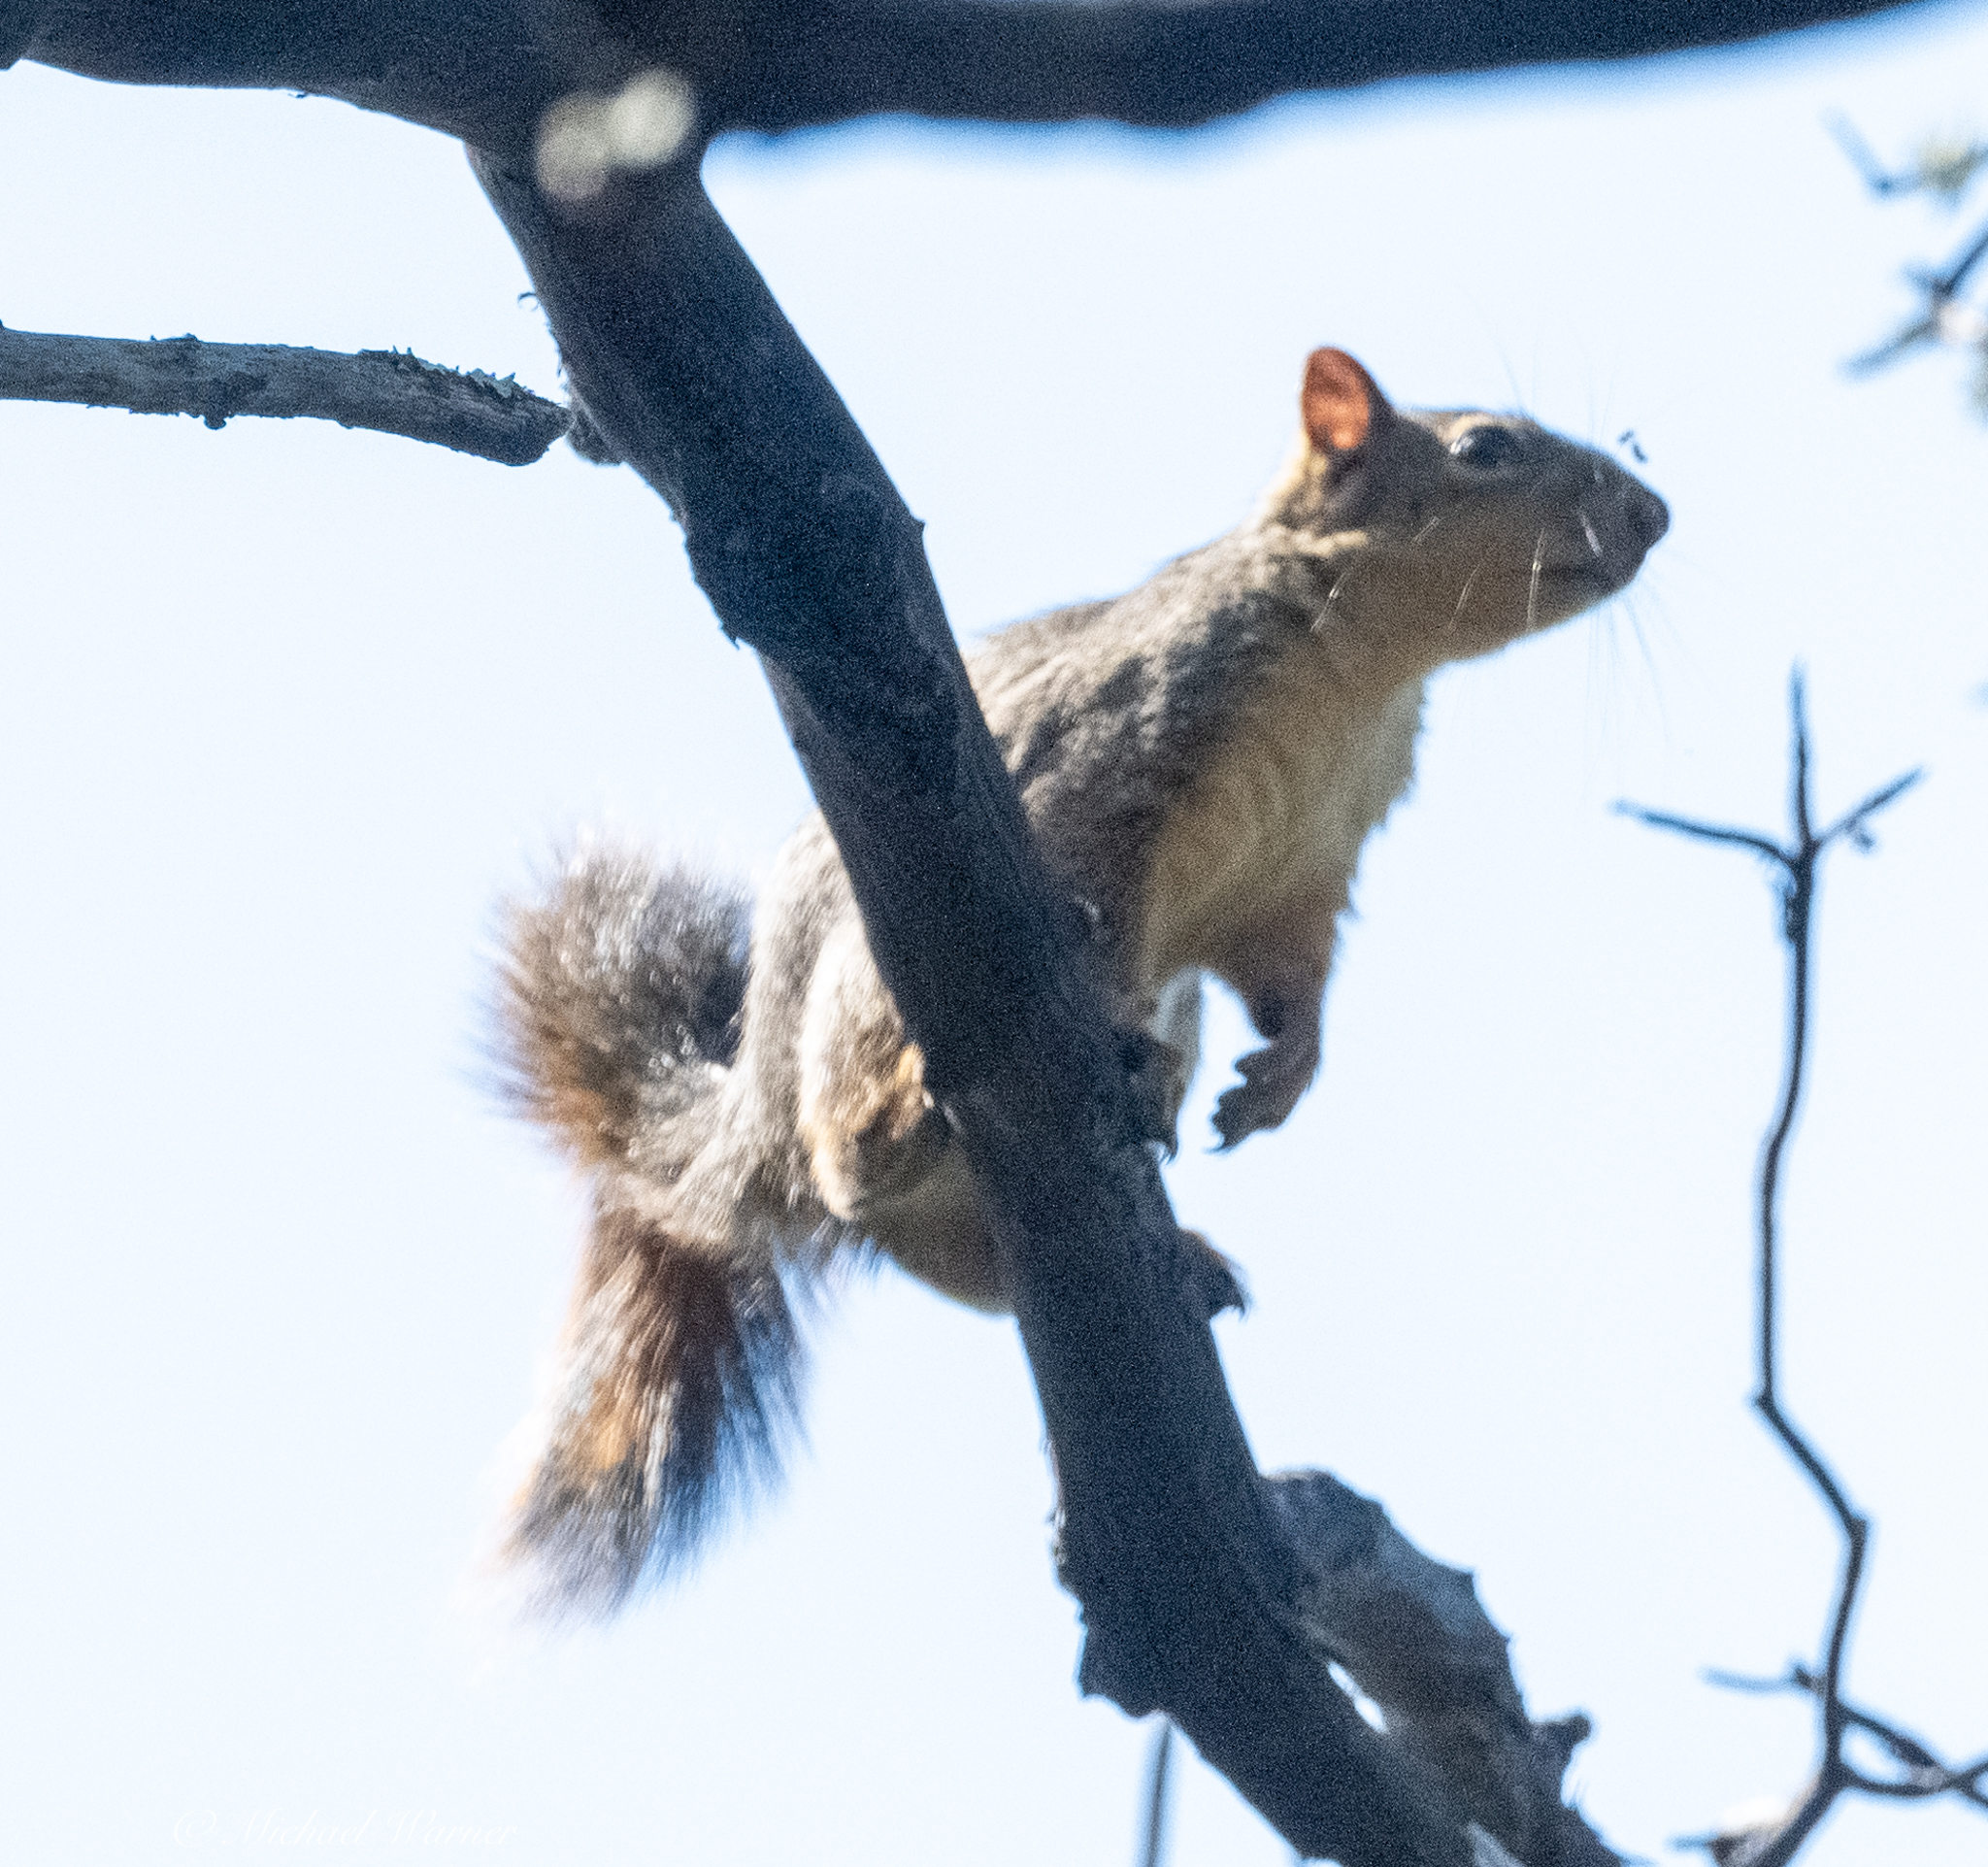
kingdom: Animalia
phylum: Chordata
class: Mammalia
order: Rodentia
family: Sciuridae
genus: Sciurus
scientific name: Sciurus niger
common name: Fox squirrel
